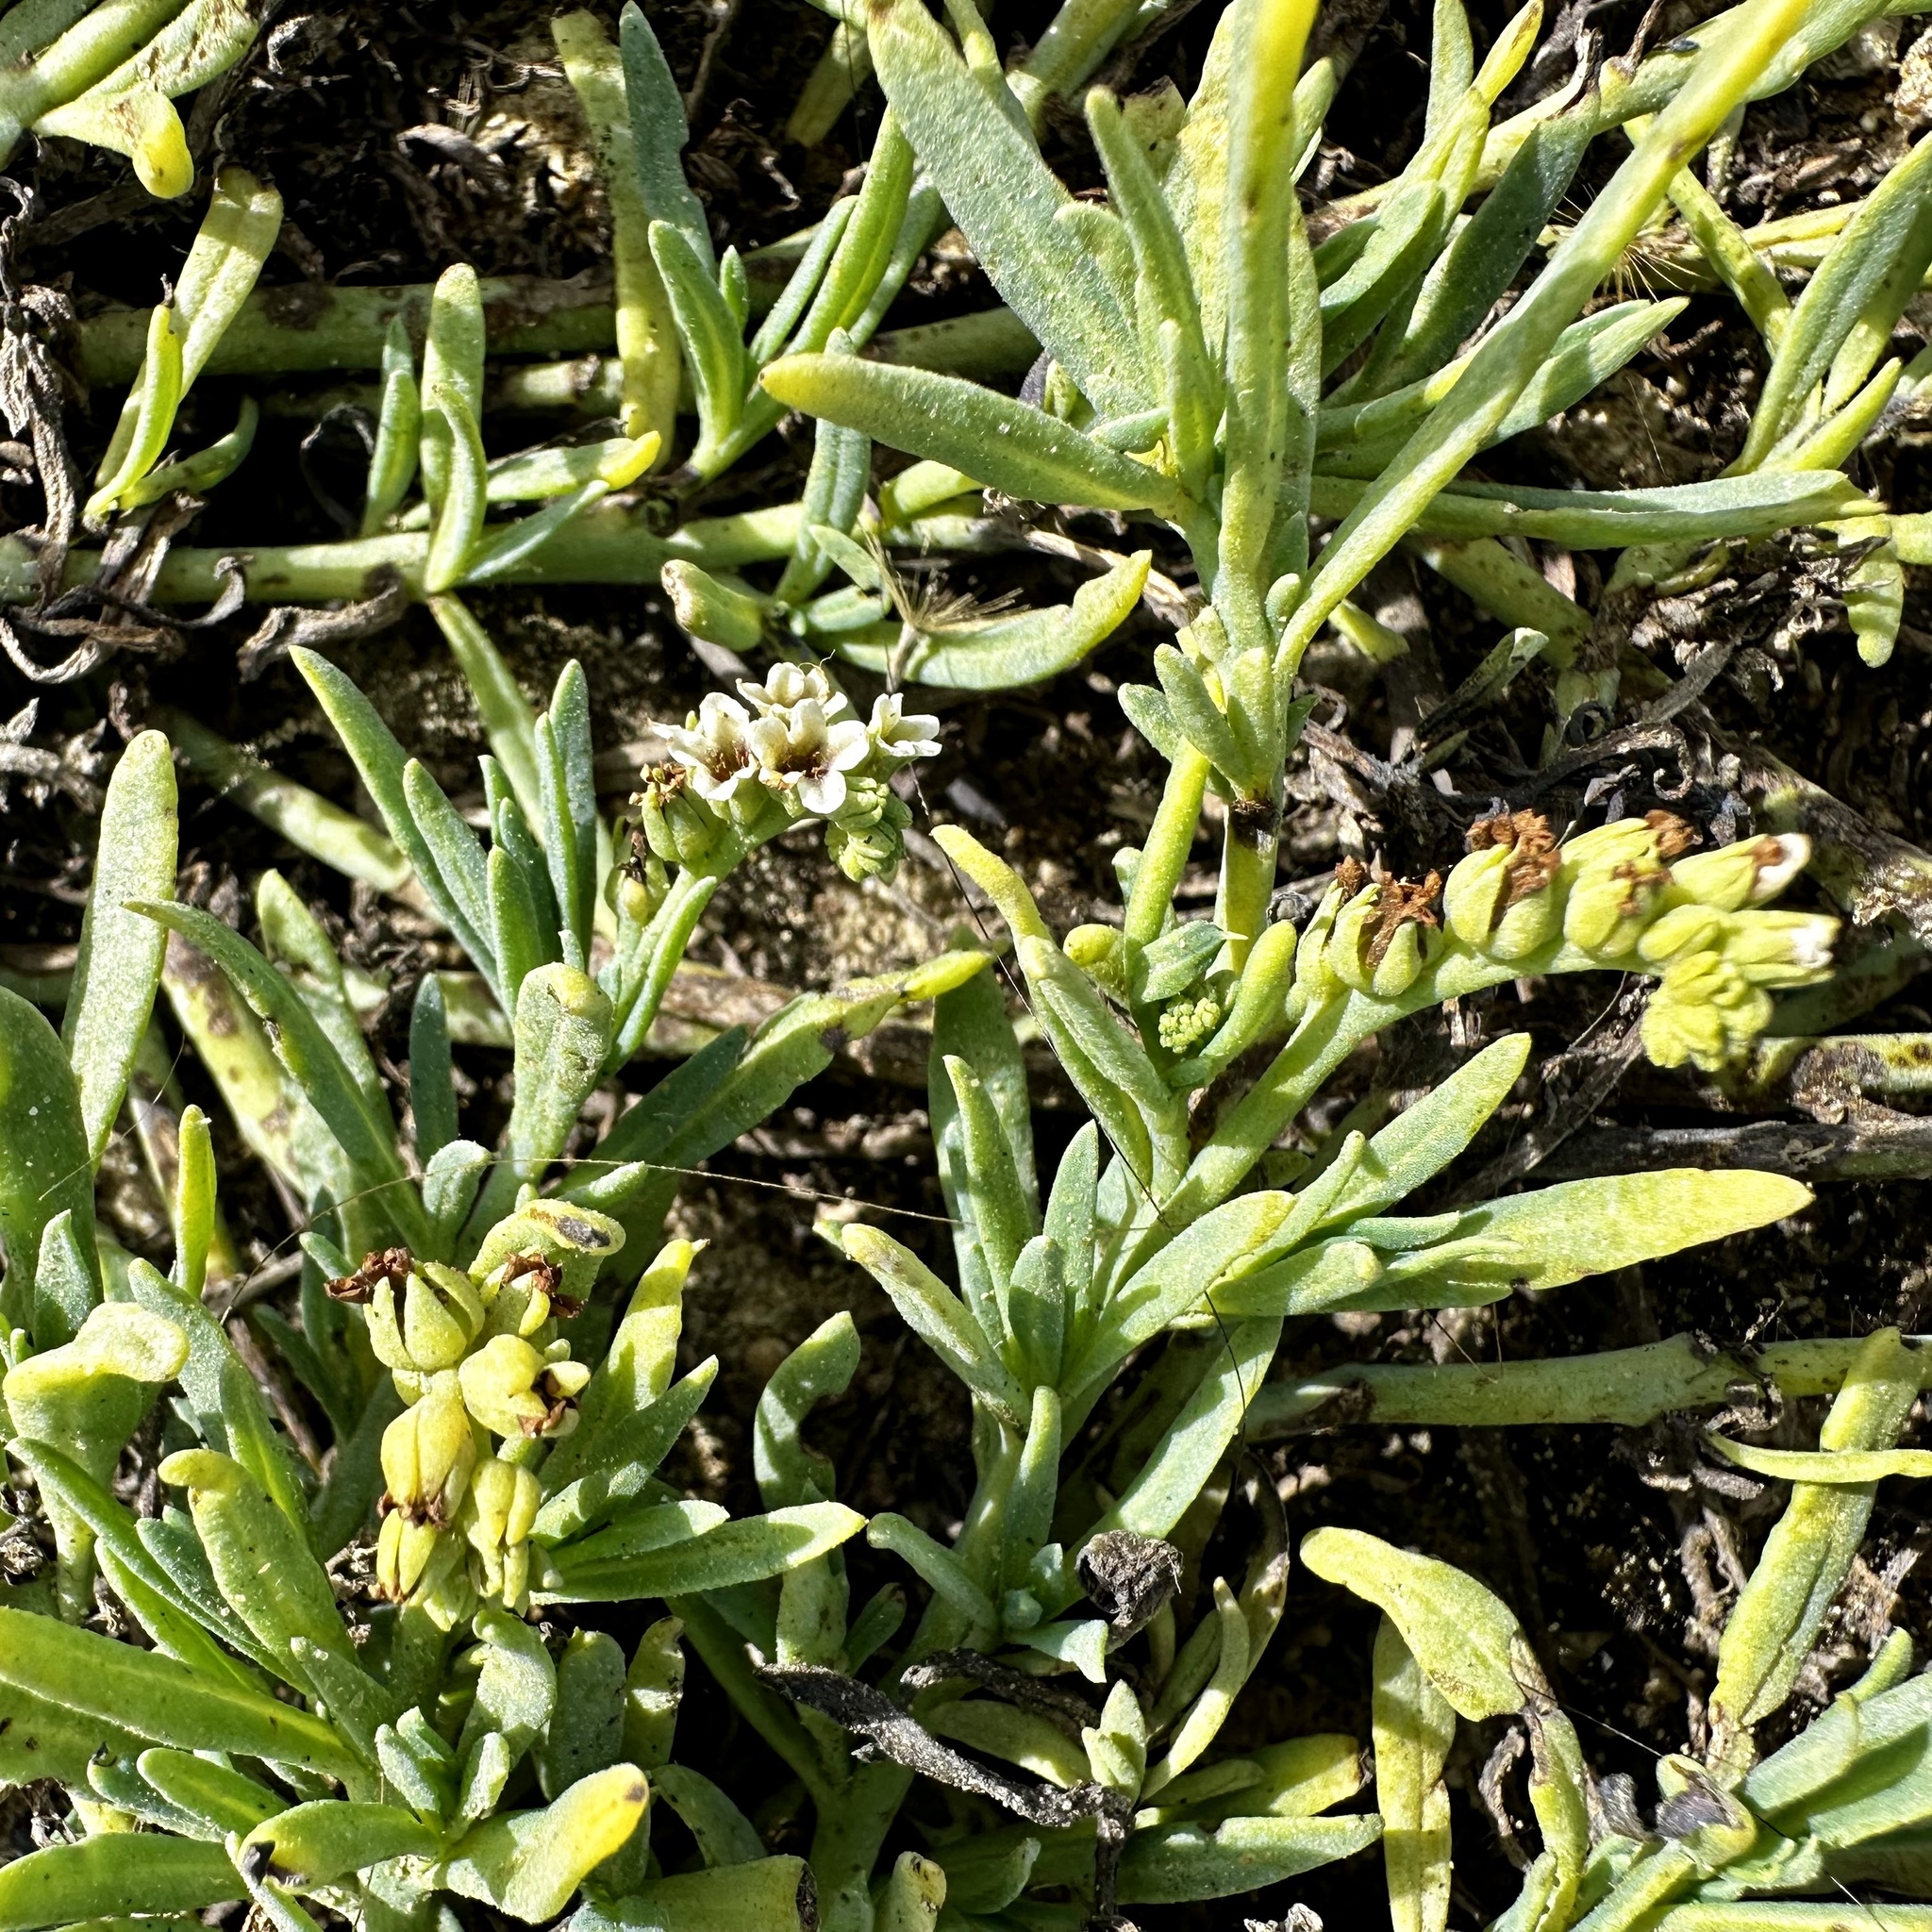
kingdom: Plantae
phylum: Tracheophyta
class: Magnoliopsida
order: Boraginales
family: Heliotropiaceae
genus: Heliotropium
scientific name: Heliotropium curassavicum
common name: Seaside heliotrope
